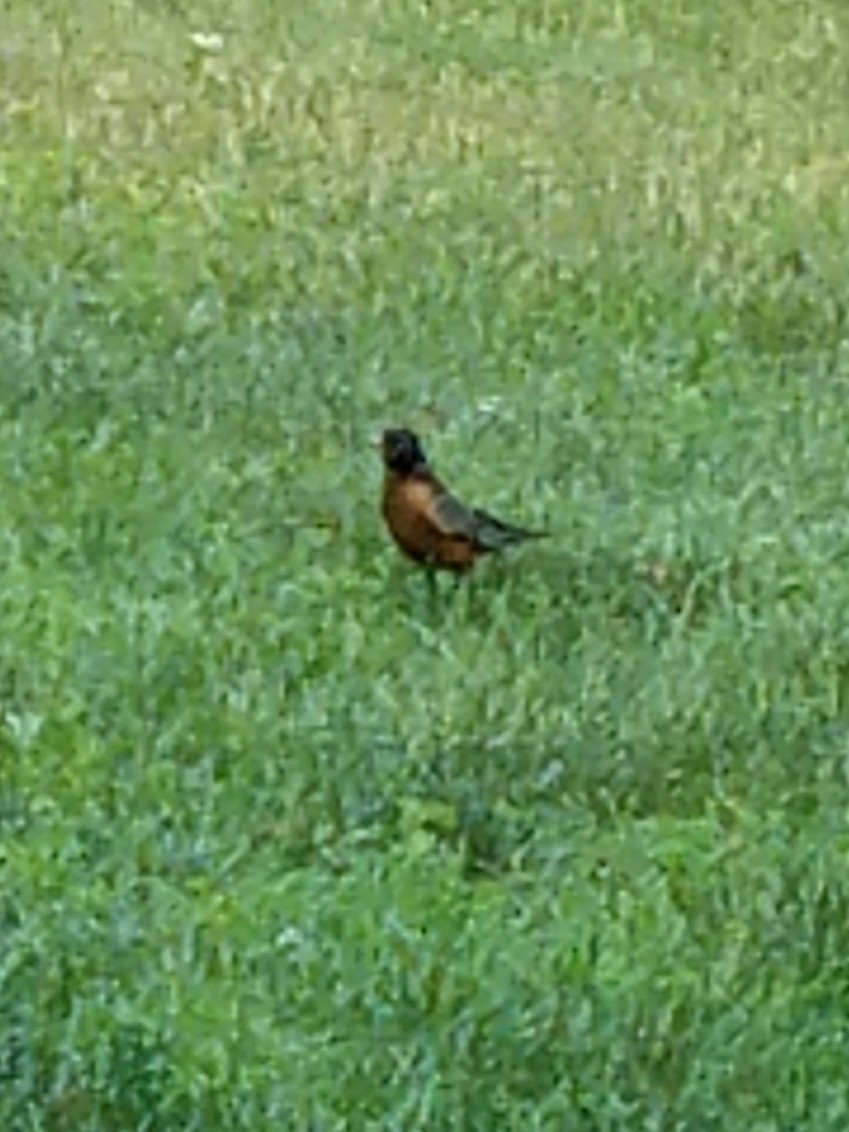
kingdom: Animalia
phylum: Chordata
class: Aves
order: Passeriformes
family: Turdidae
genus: Turdus
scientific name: Turdus migratorius
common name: American robin
